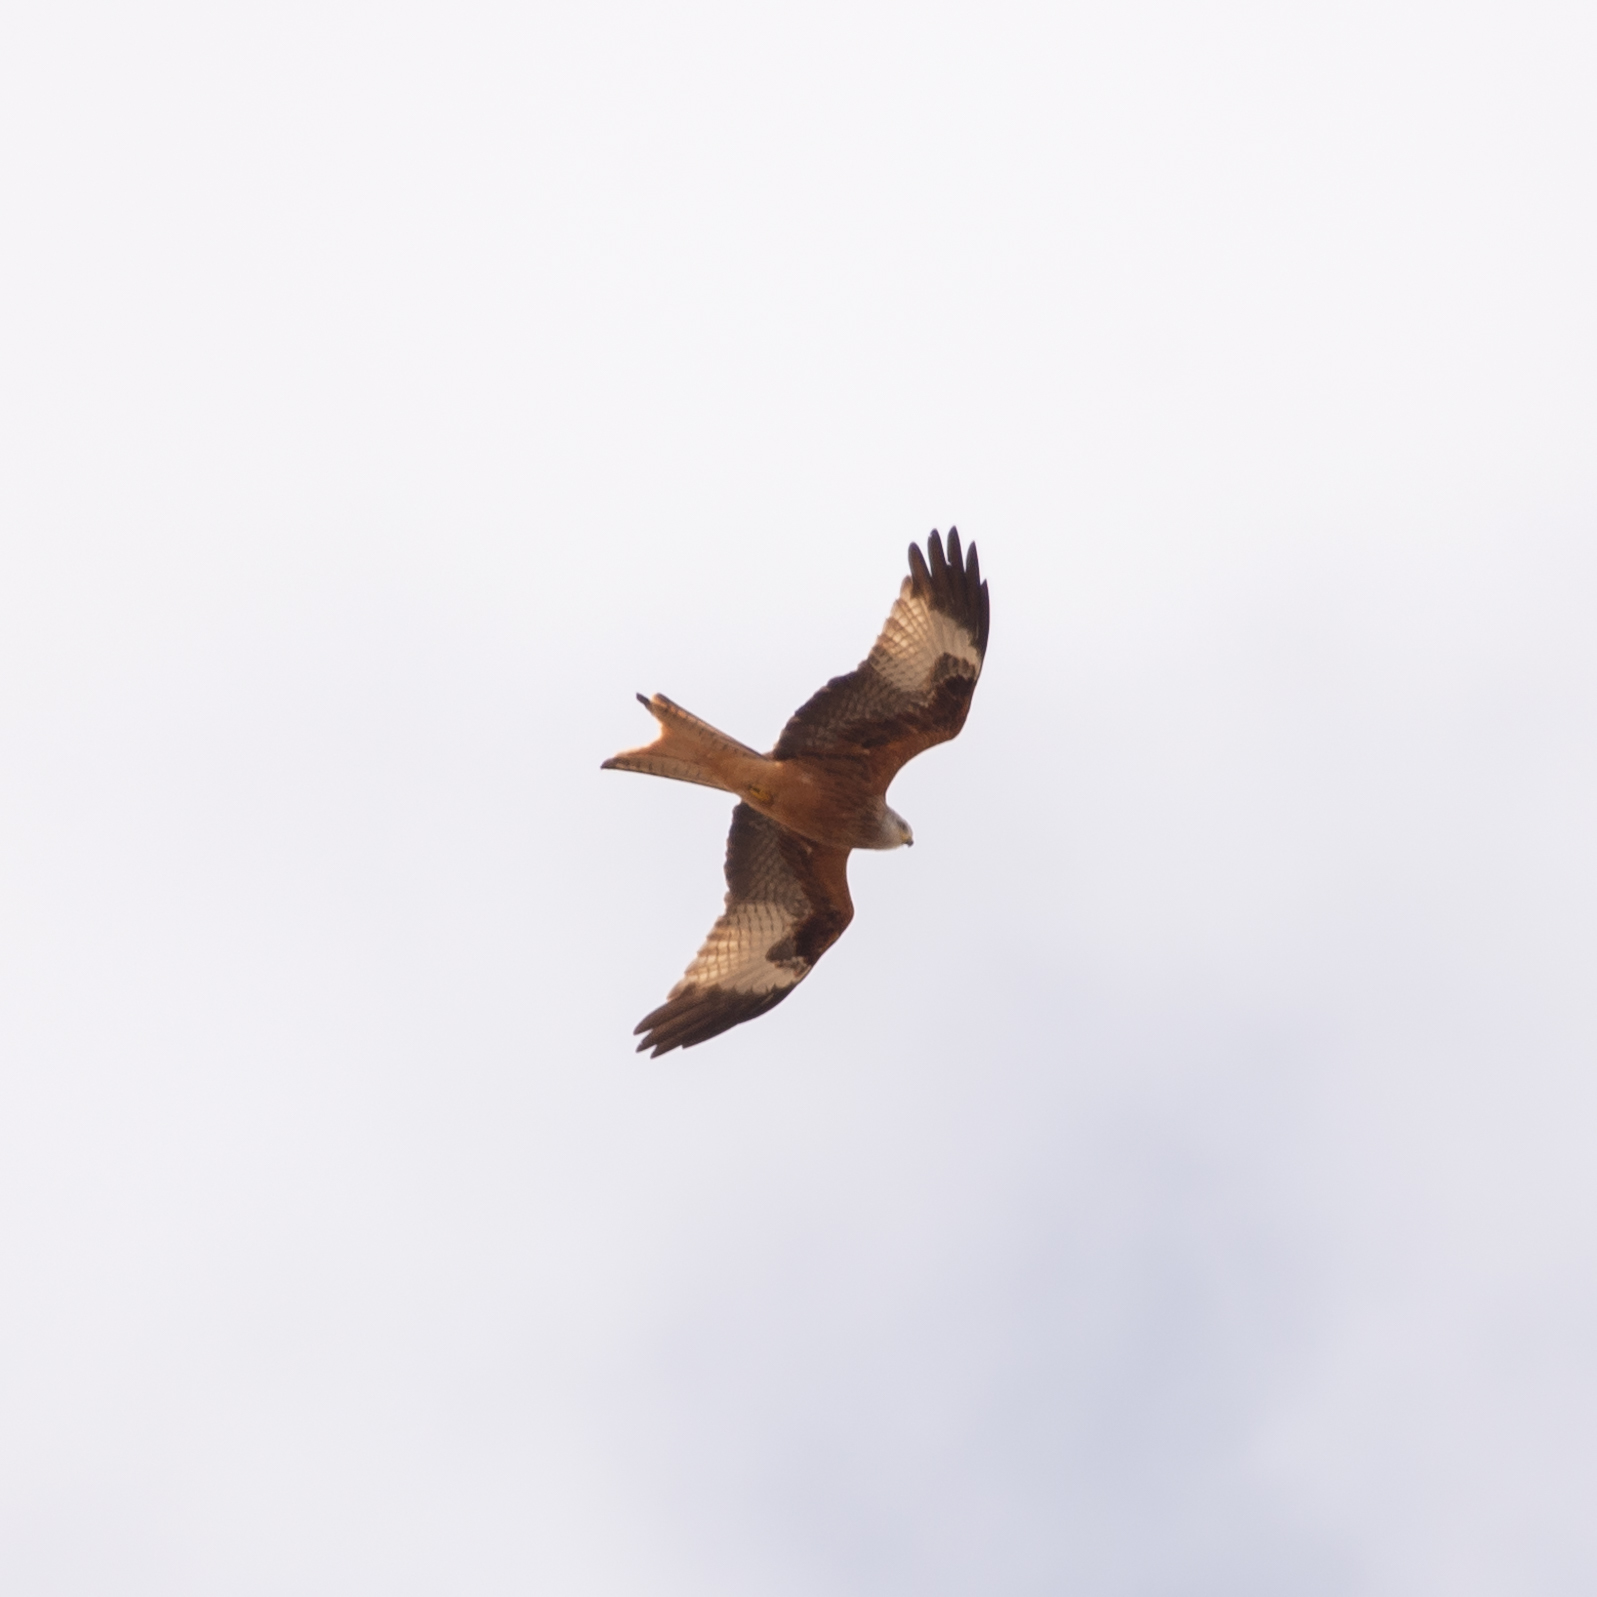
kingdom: Animalia
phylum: Chordata
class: Aves
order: Accipitriformes
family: Accipitridae
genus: Milvus
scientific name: Milvus milvus
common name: Red kite
